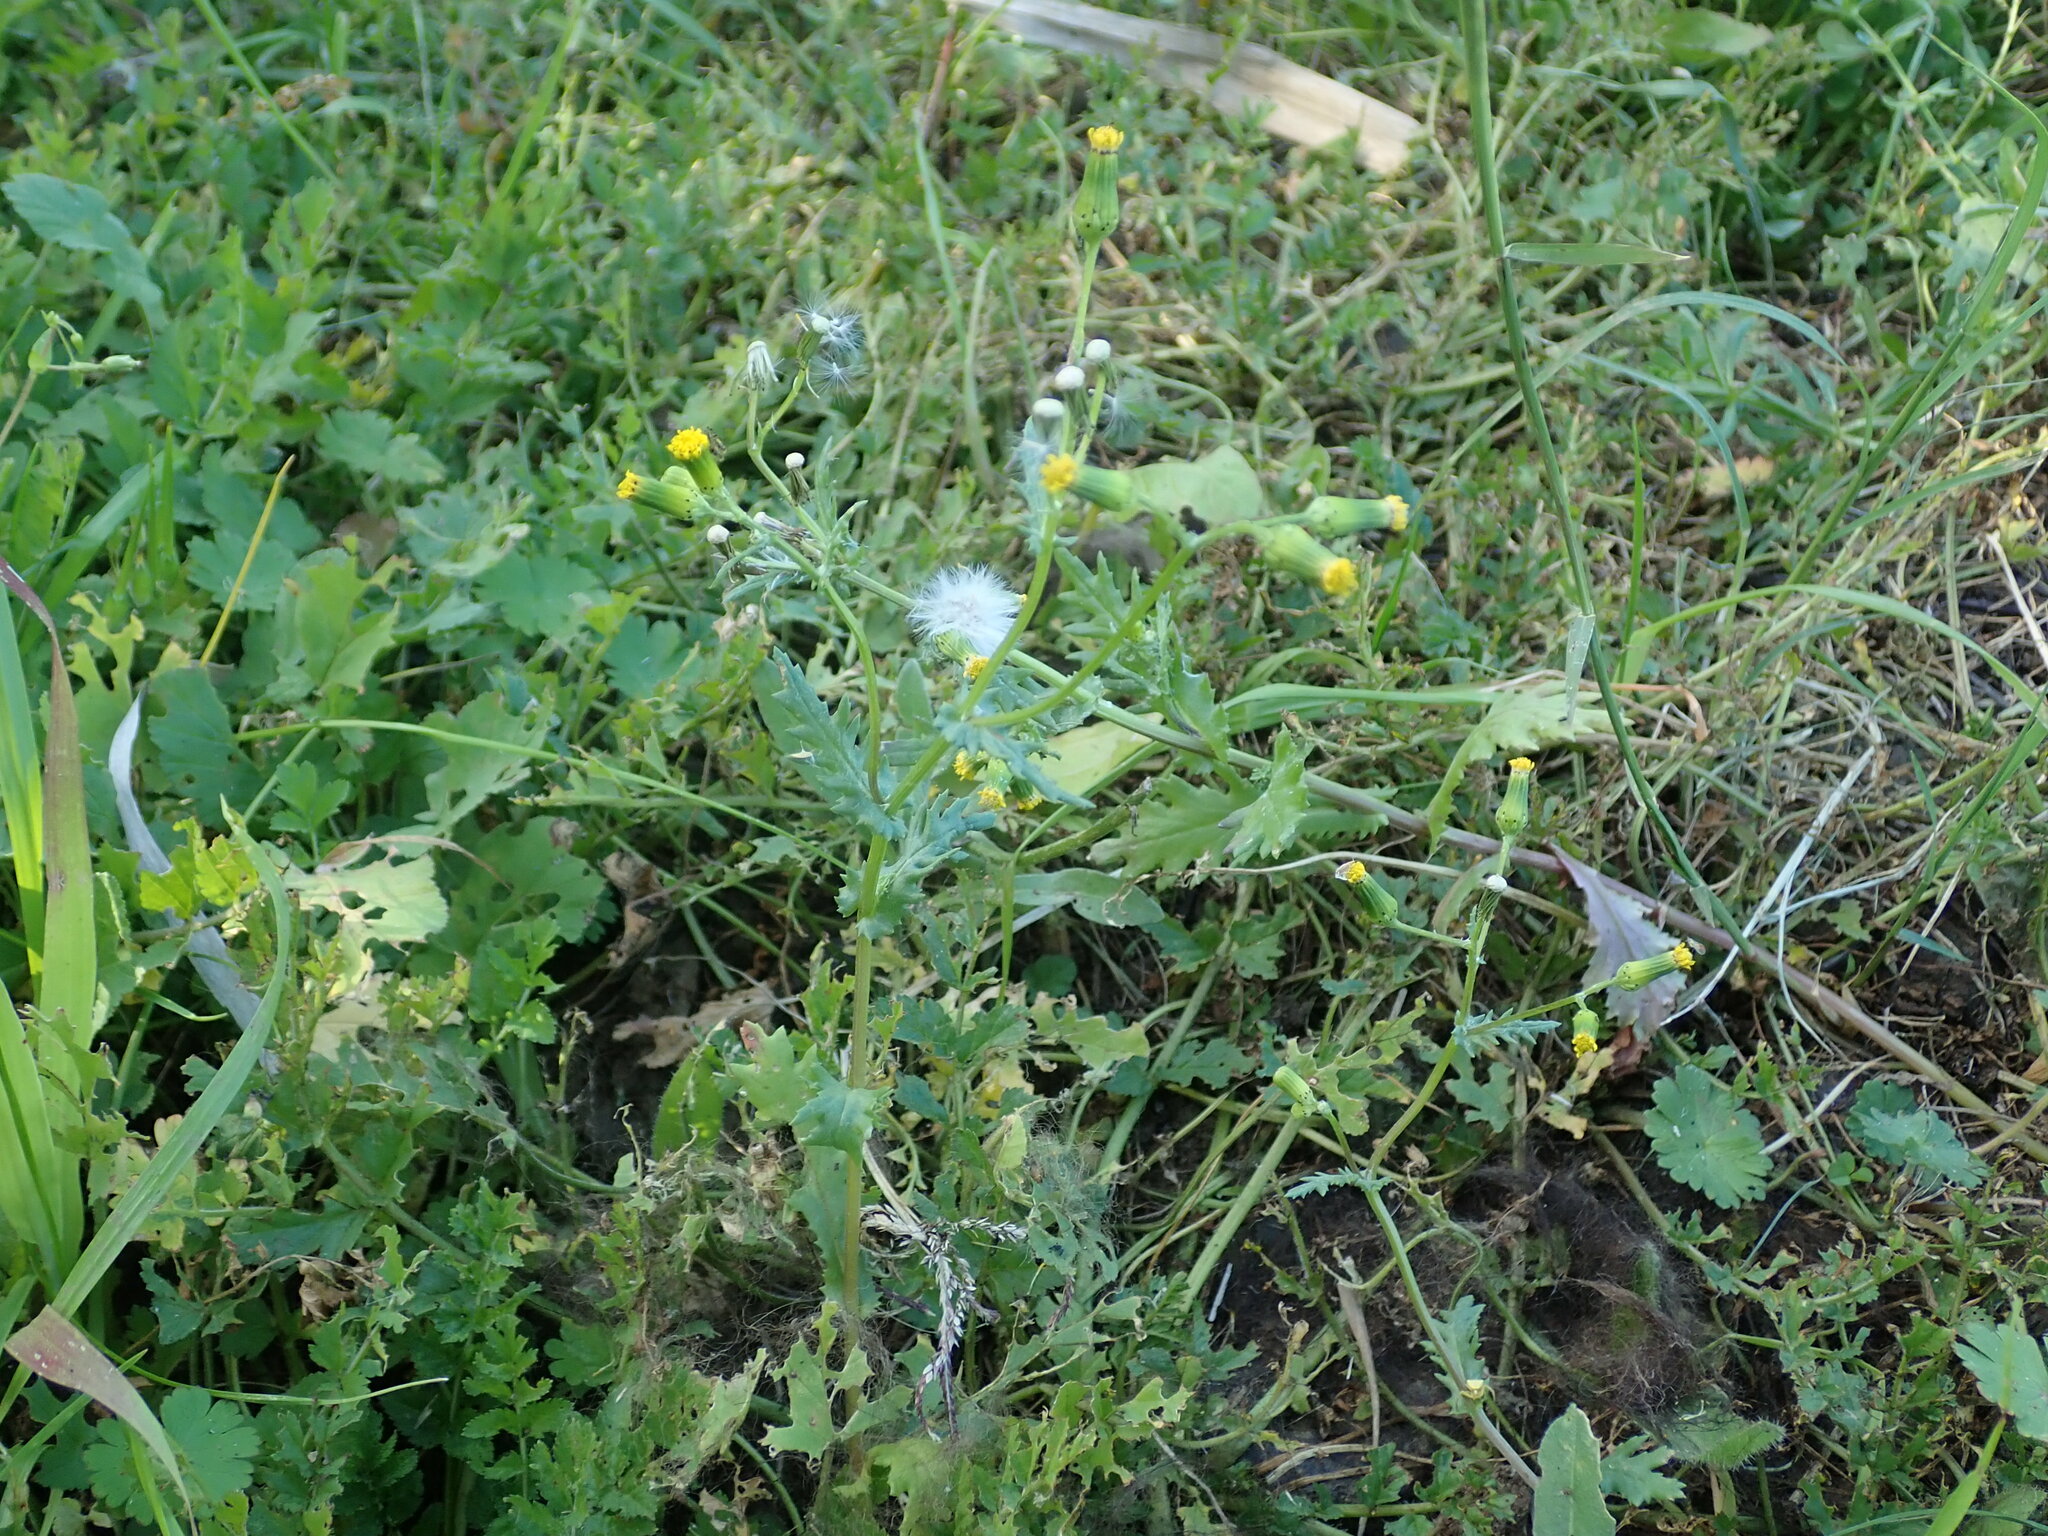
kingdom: Plantae
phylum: Tracheophyta
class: Magnoliopsida
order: Asterales
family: Asteraceae
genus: Senecio
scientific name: Senecio vulgaris
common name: Old-man-in-the-spring
